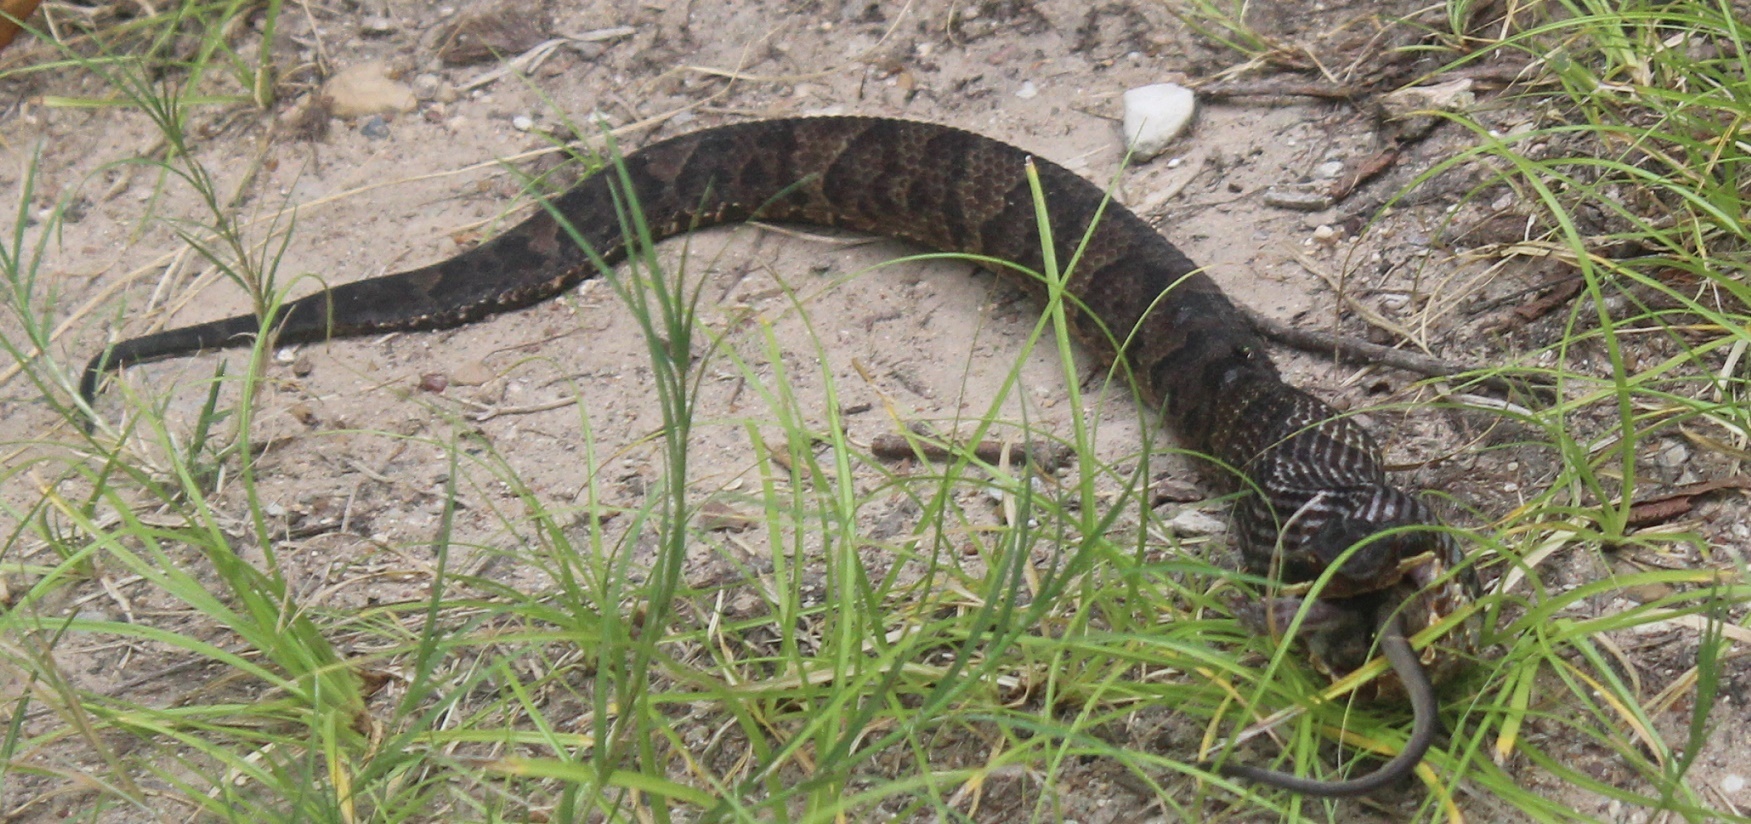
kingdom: Animalia
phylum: Chordata
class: Squamata
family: Viperidae
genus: Agkistrodon
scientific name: Agkistrodon piscivorus
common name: Cottonmouth
